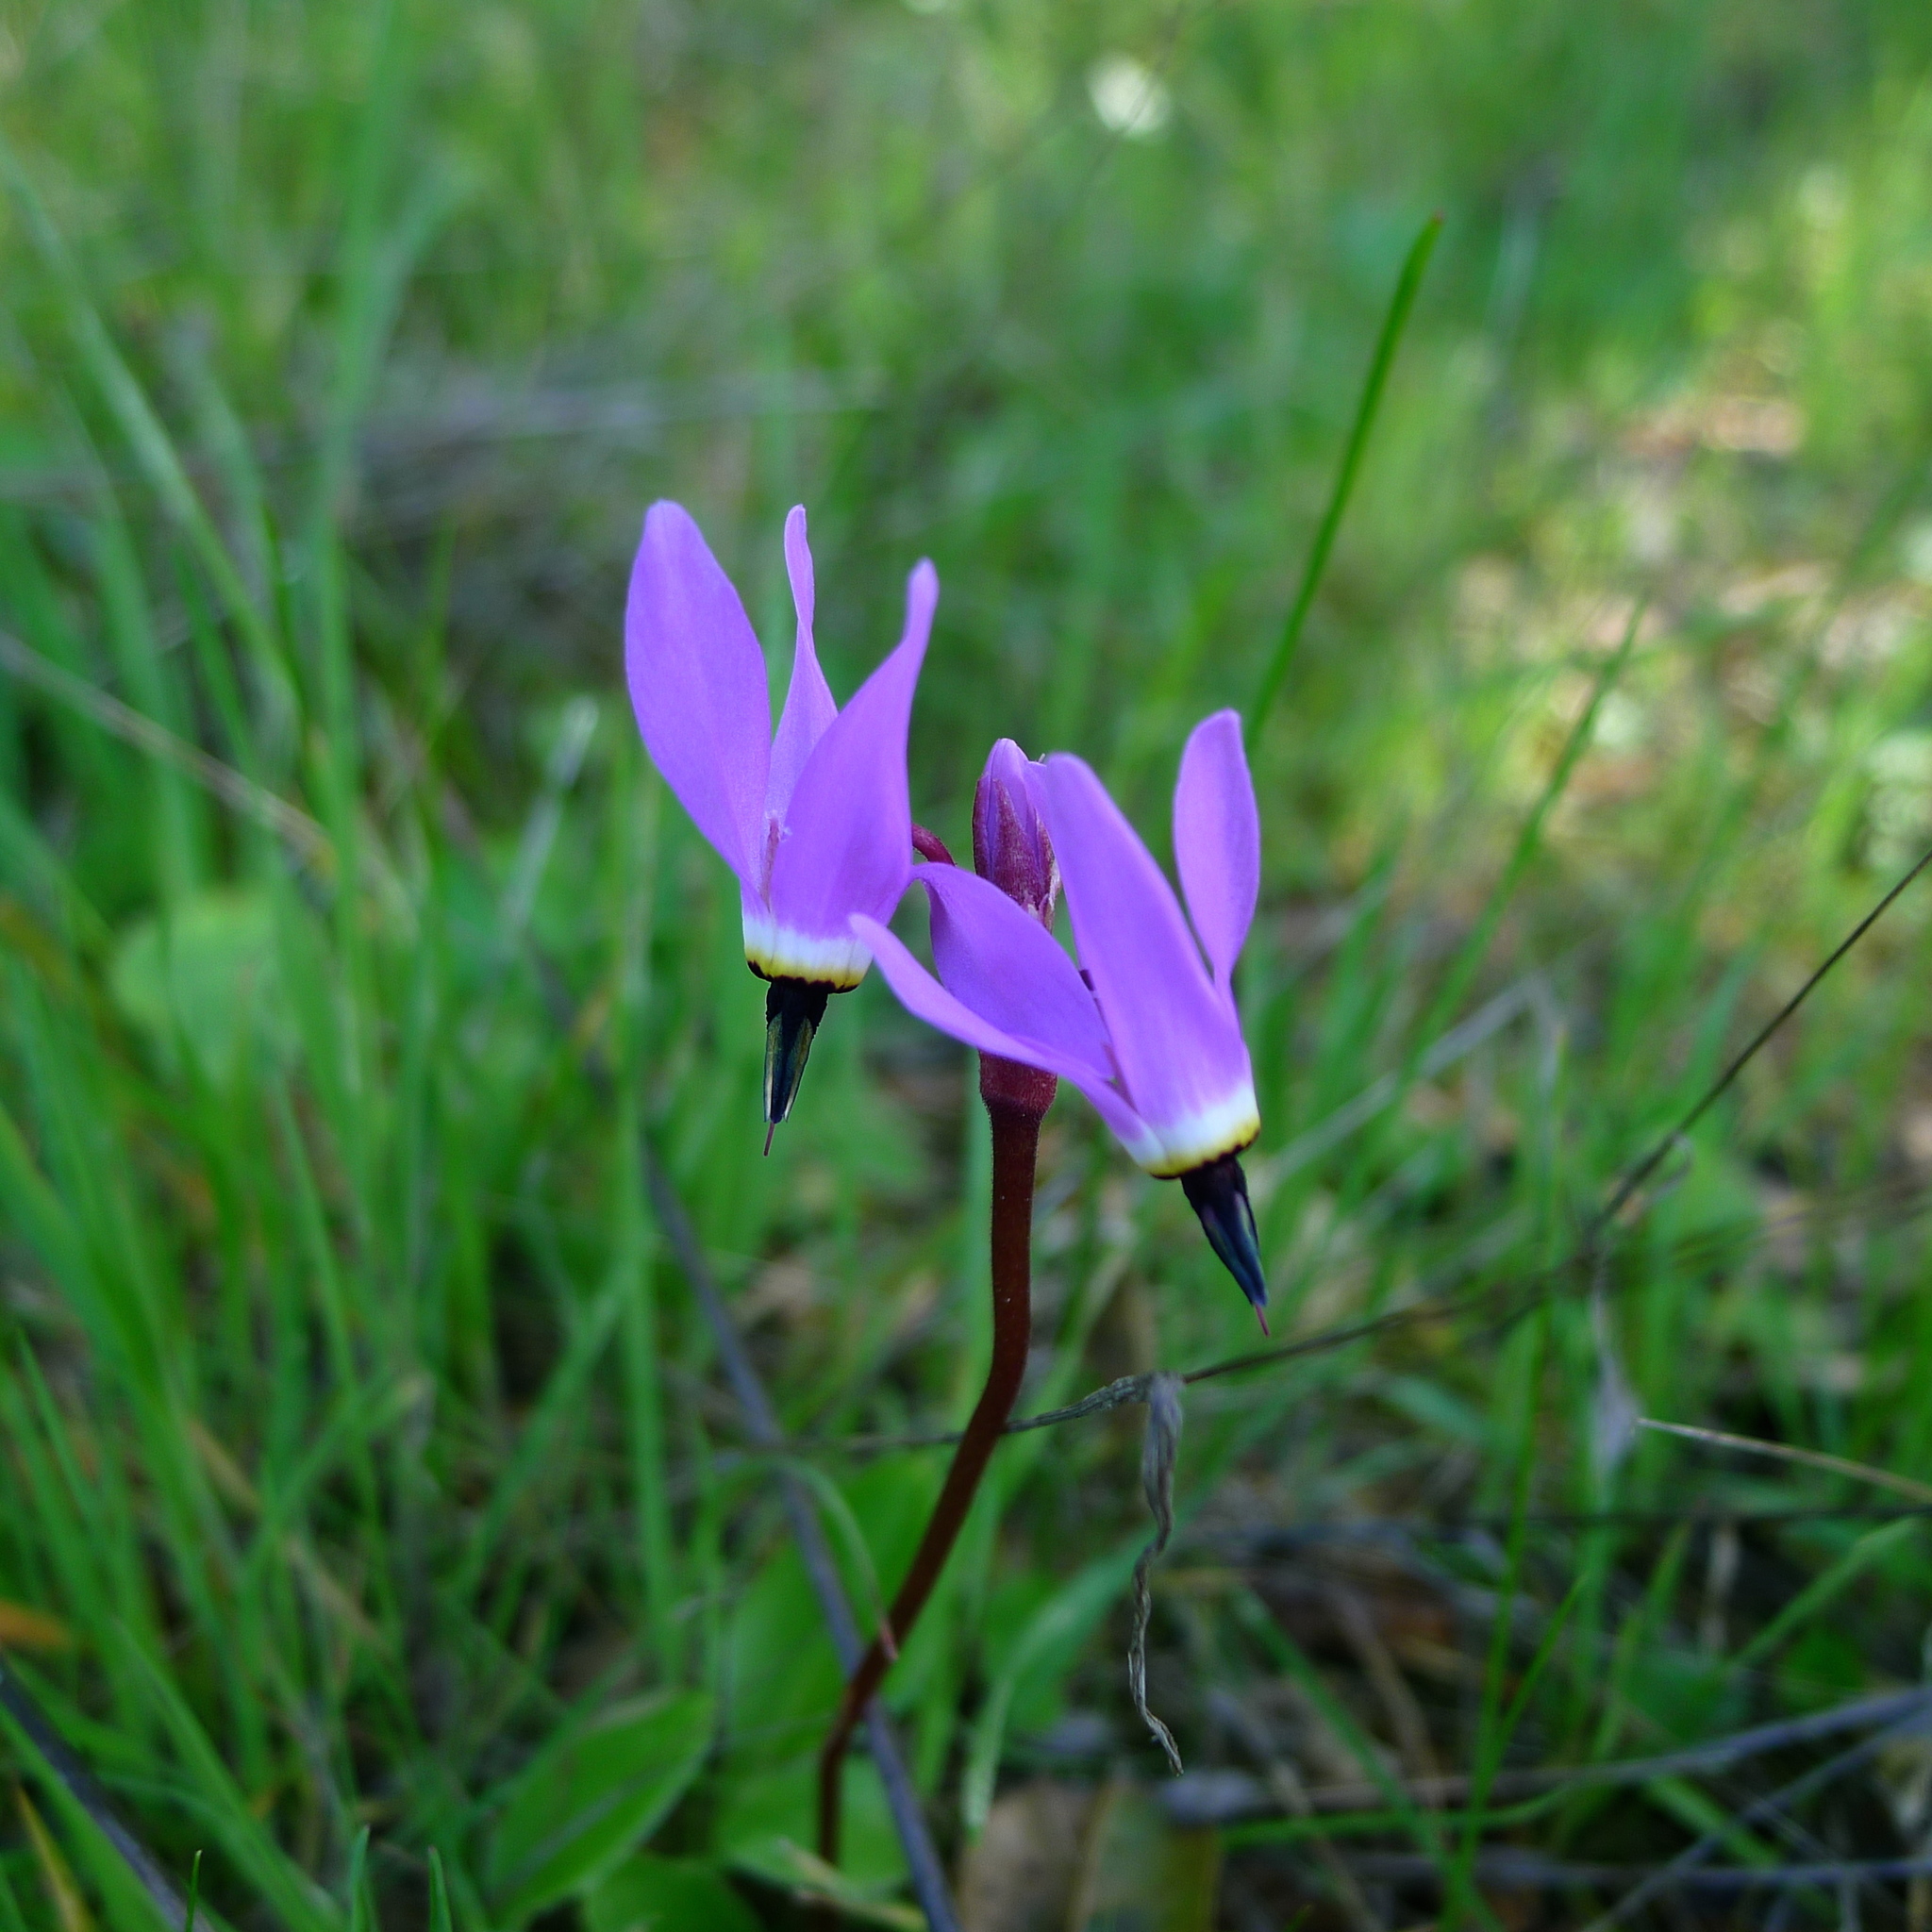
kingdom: Plantae
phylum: Tracheophyta
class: Magnoliopsida
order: Ericales
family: Primulaceae
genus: Dodecatheon
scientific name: Dodecatheon hendersonii
